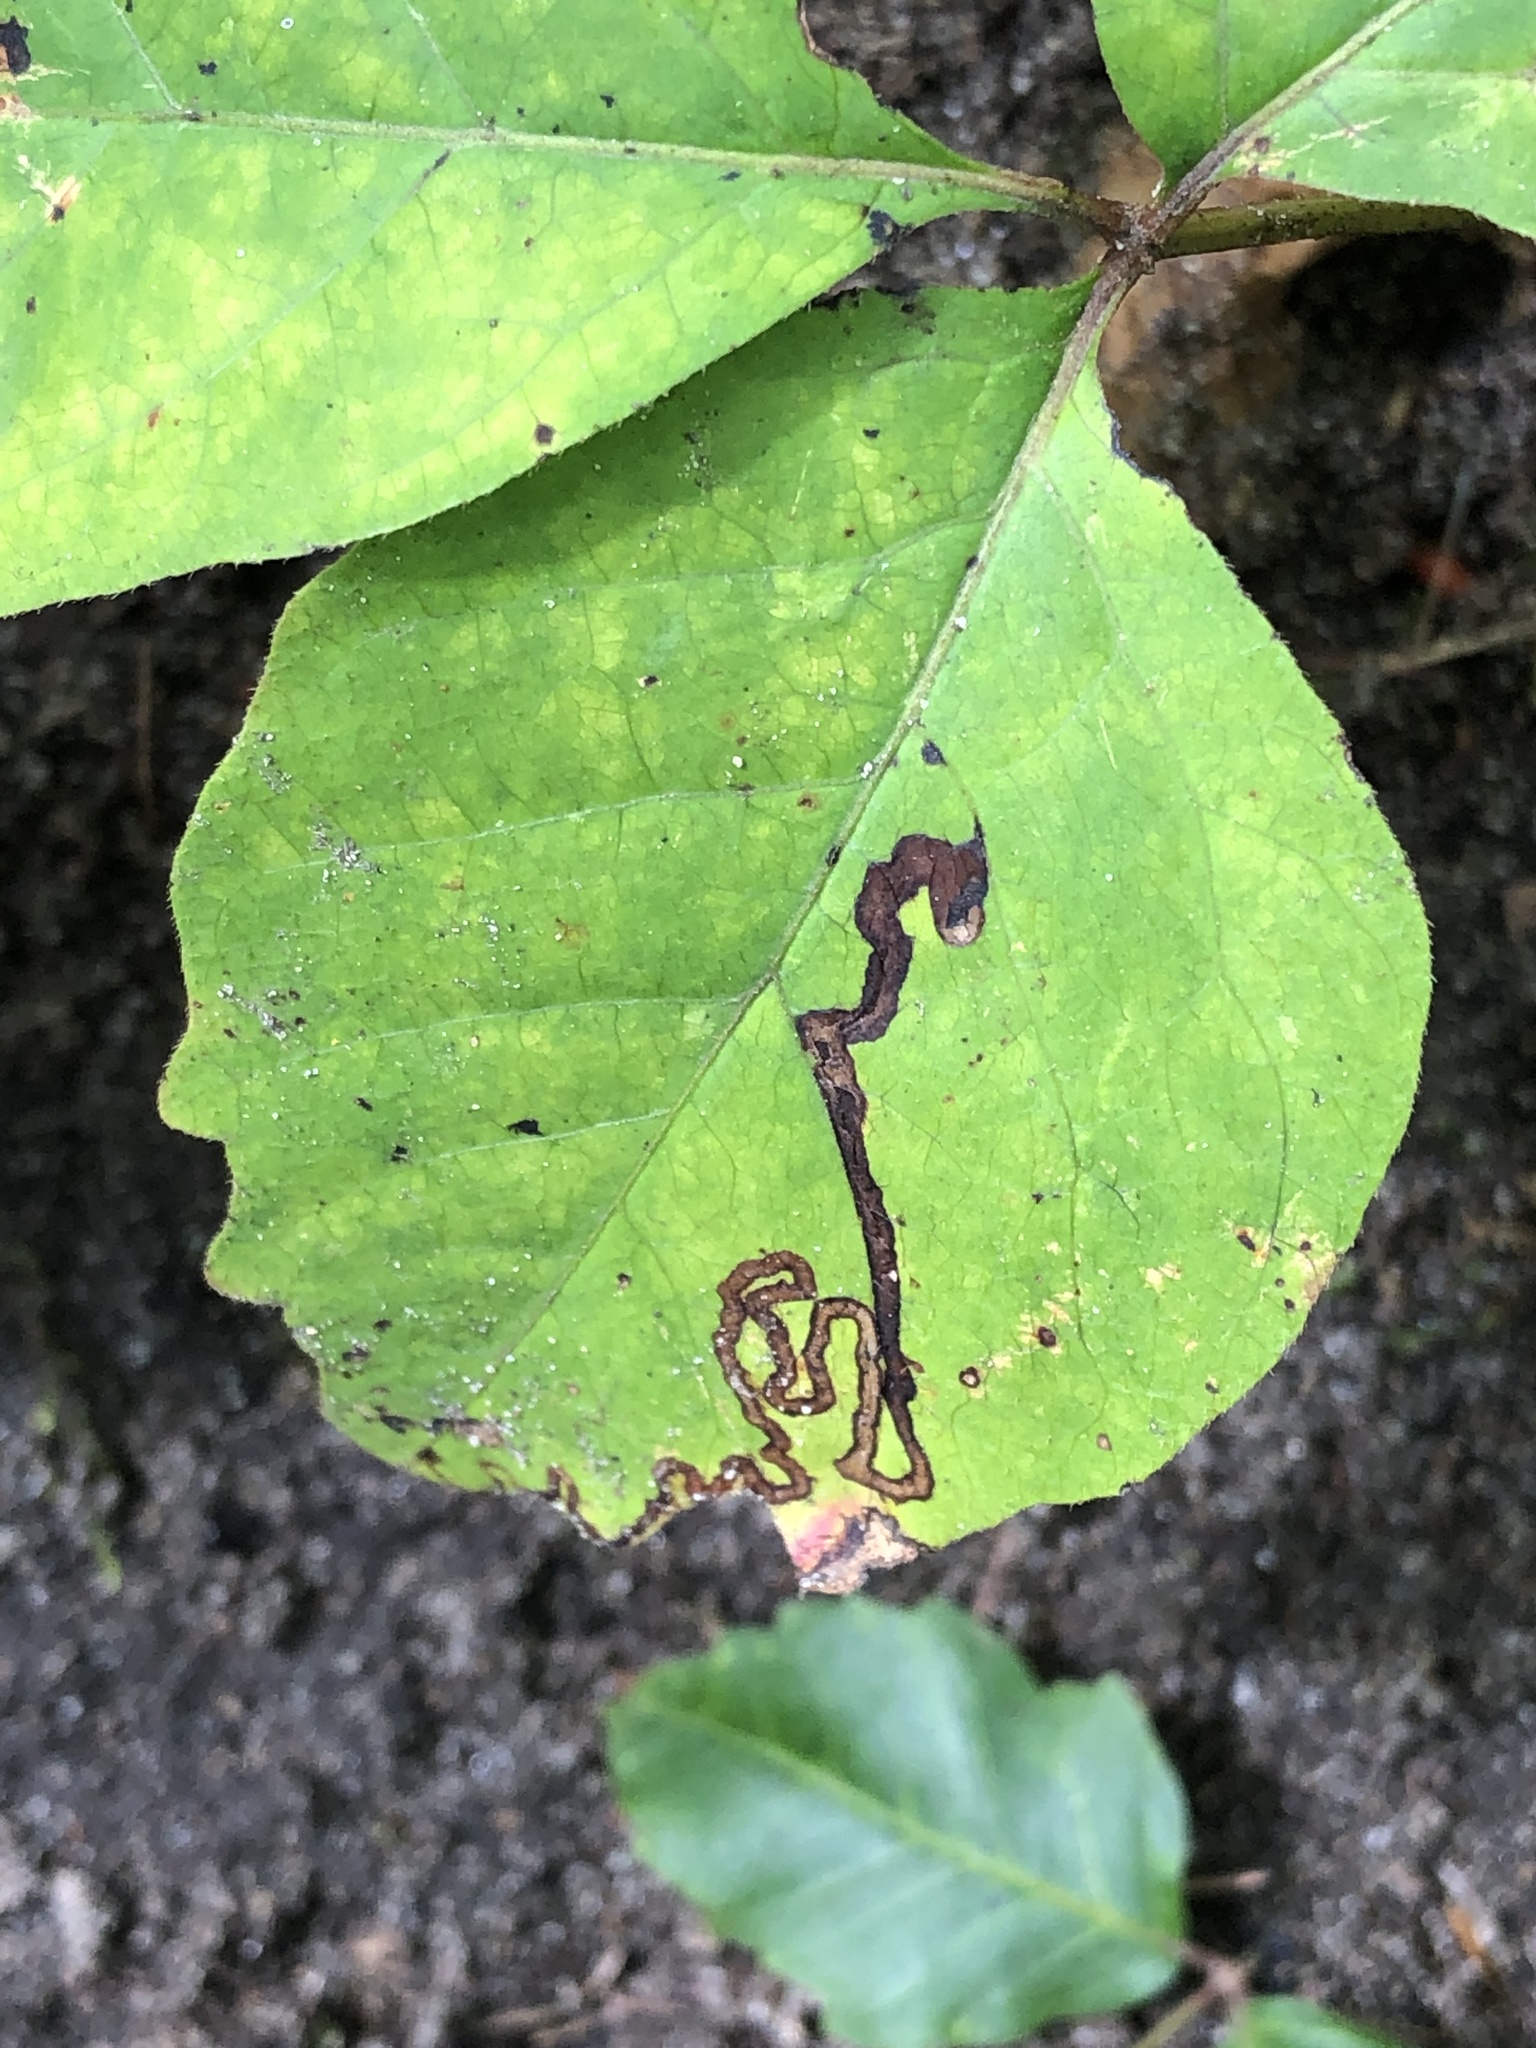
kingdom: Animalia
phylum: Arthropoda
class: Insecta
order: Lepidoptera
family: Nepticulidae
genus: Stigmella
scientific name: Stigmella rhoifoliella
